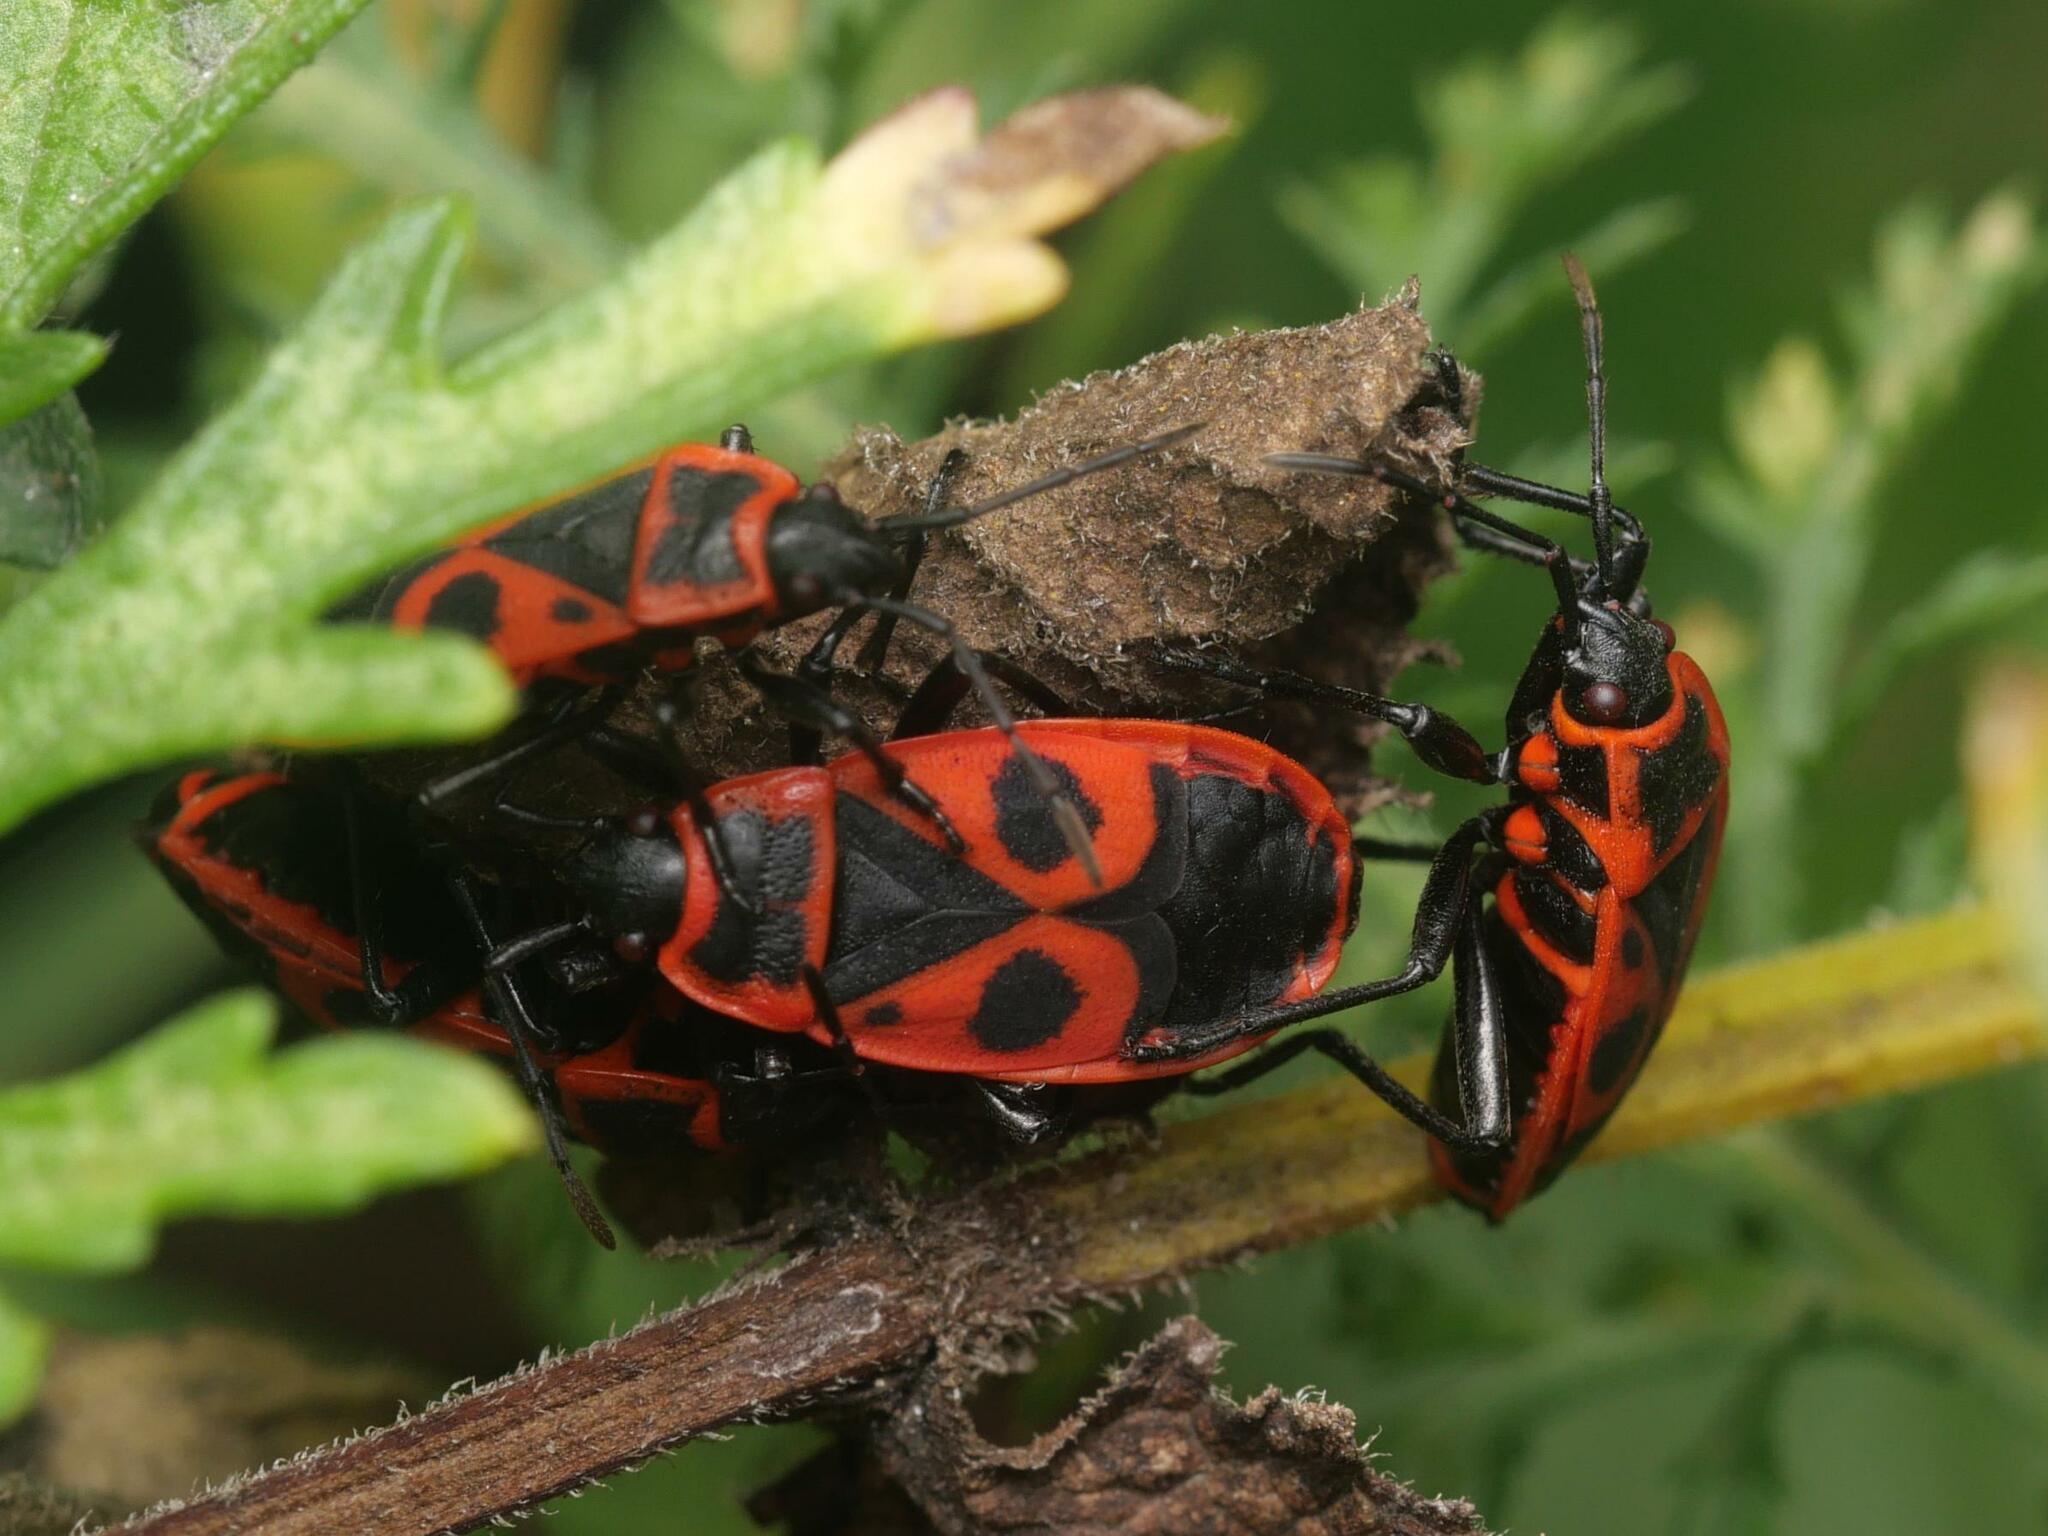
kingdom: Animalia
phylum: Arthropoda
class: Insecta
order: Hemiptera
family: Pyrrhocoridae
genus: Pyrrhocoris
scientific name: Pyrrhocoris apterus
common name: Firebug
